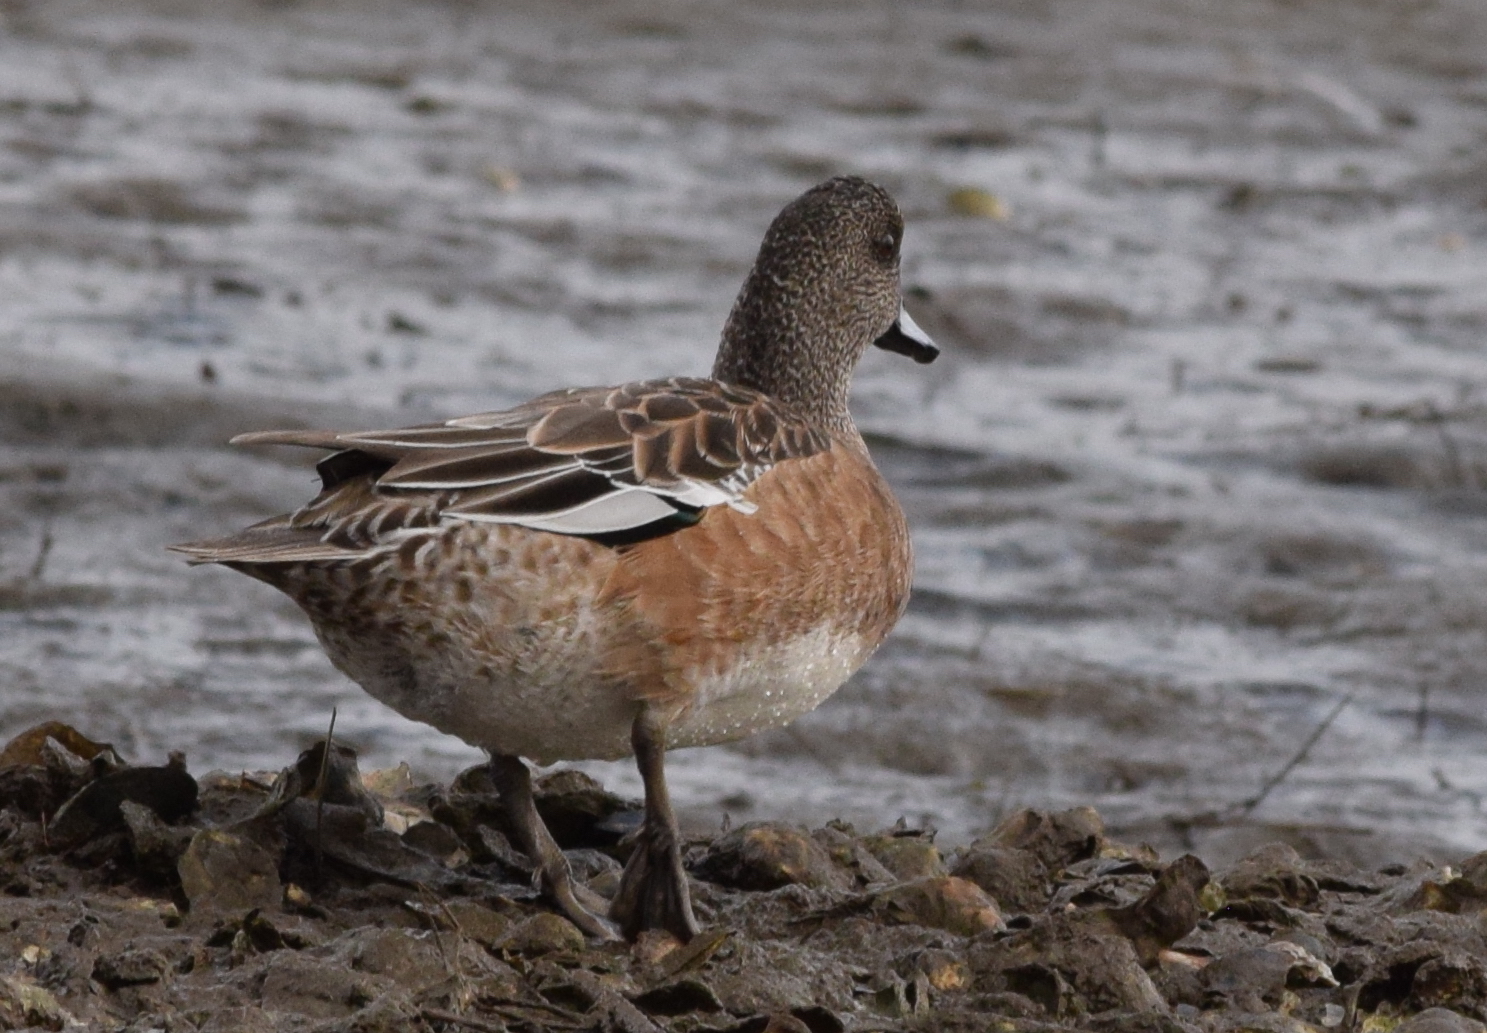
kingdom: Animalia
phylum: Chordata
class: Aves
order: Anseriformes
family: Anatidae
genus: Mareca
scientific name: Mareca americana
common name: American wigeon
